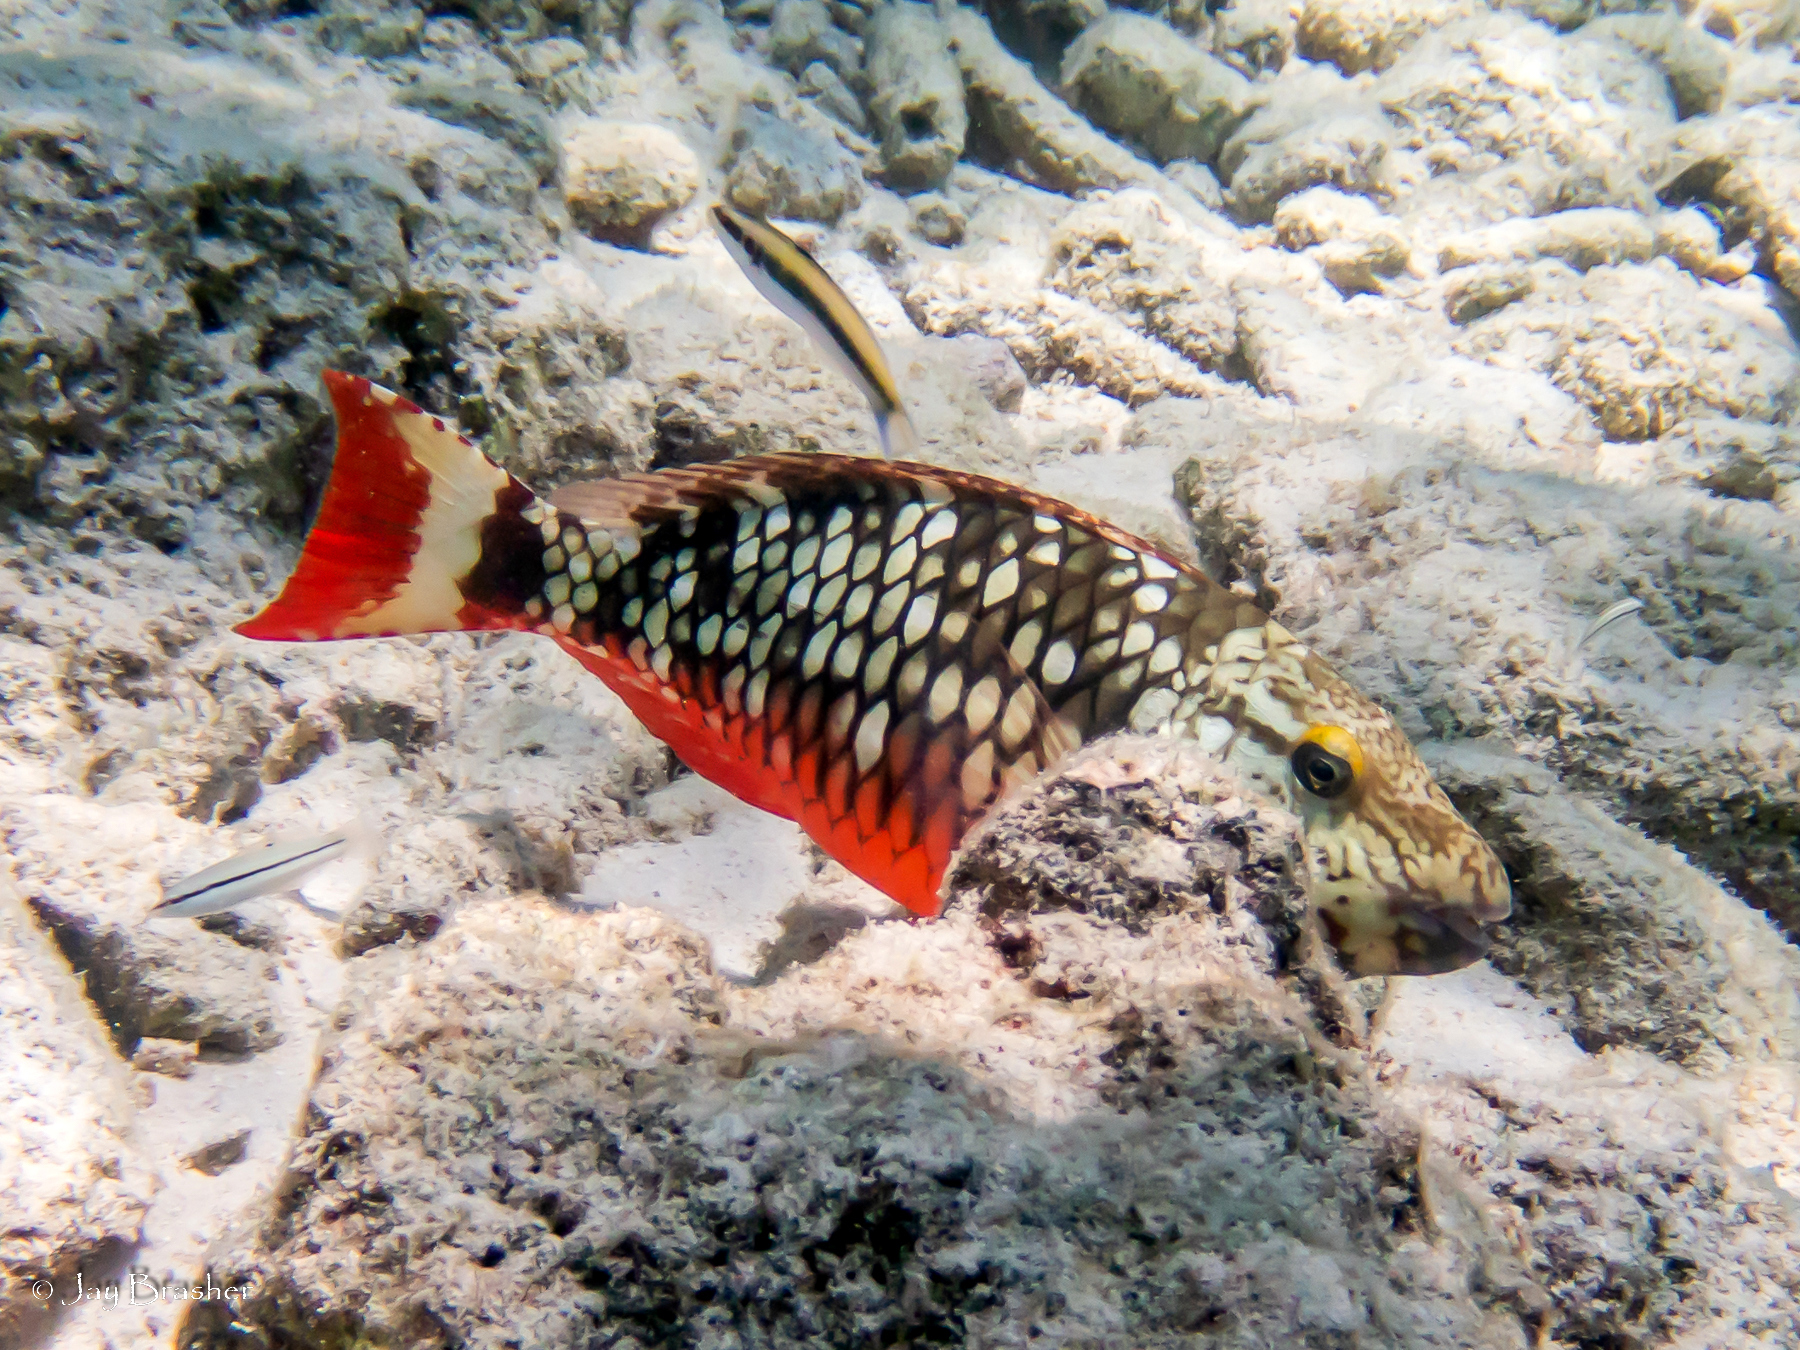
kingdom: Animalia
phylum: Chordata
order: Perciformes
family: Scaridae
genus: Sparisoma
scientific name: Sparisoma viride
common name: Stoplight parrotfish
